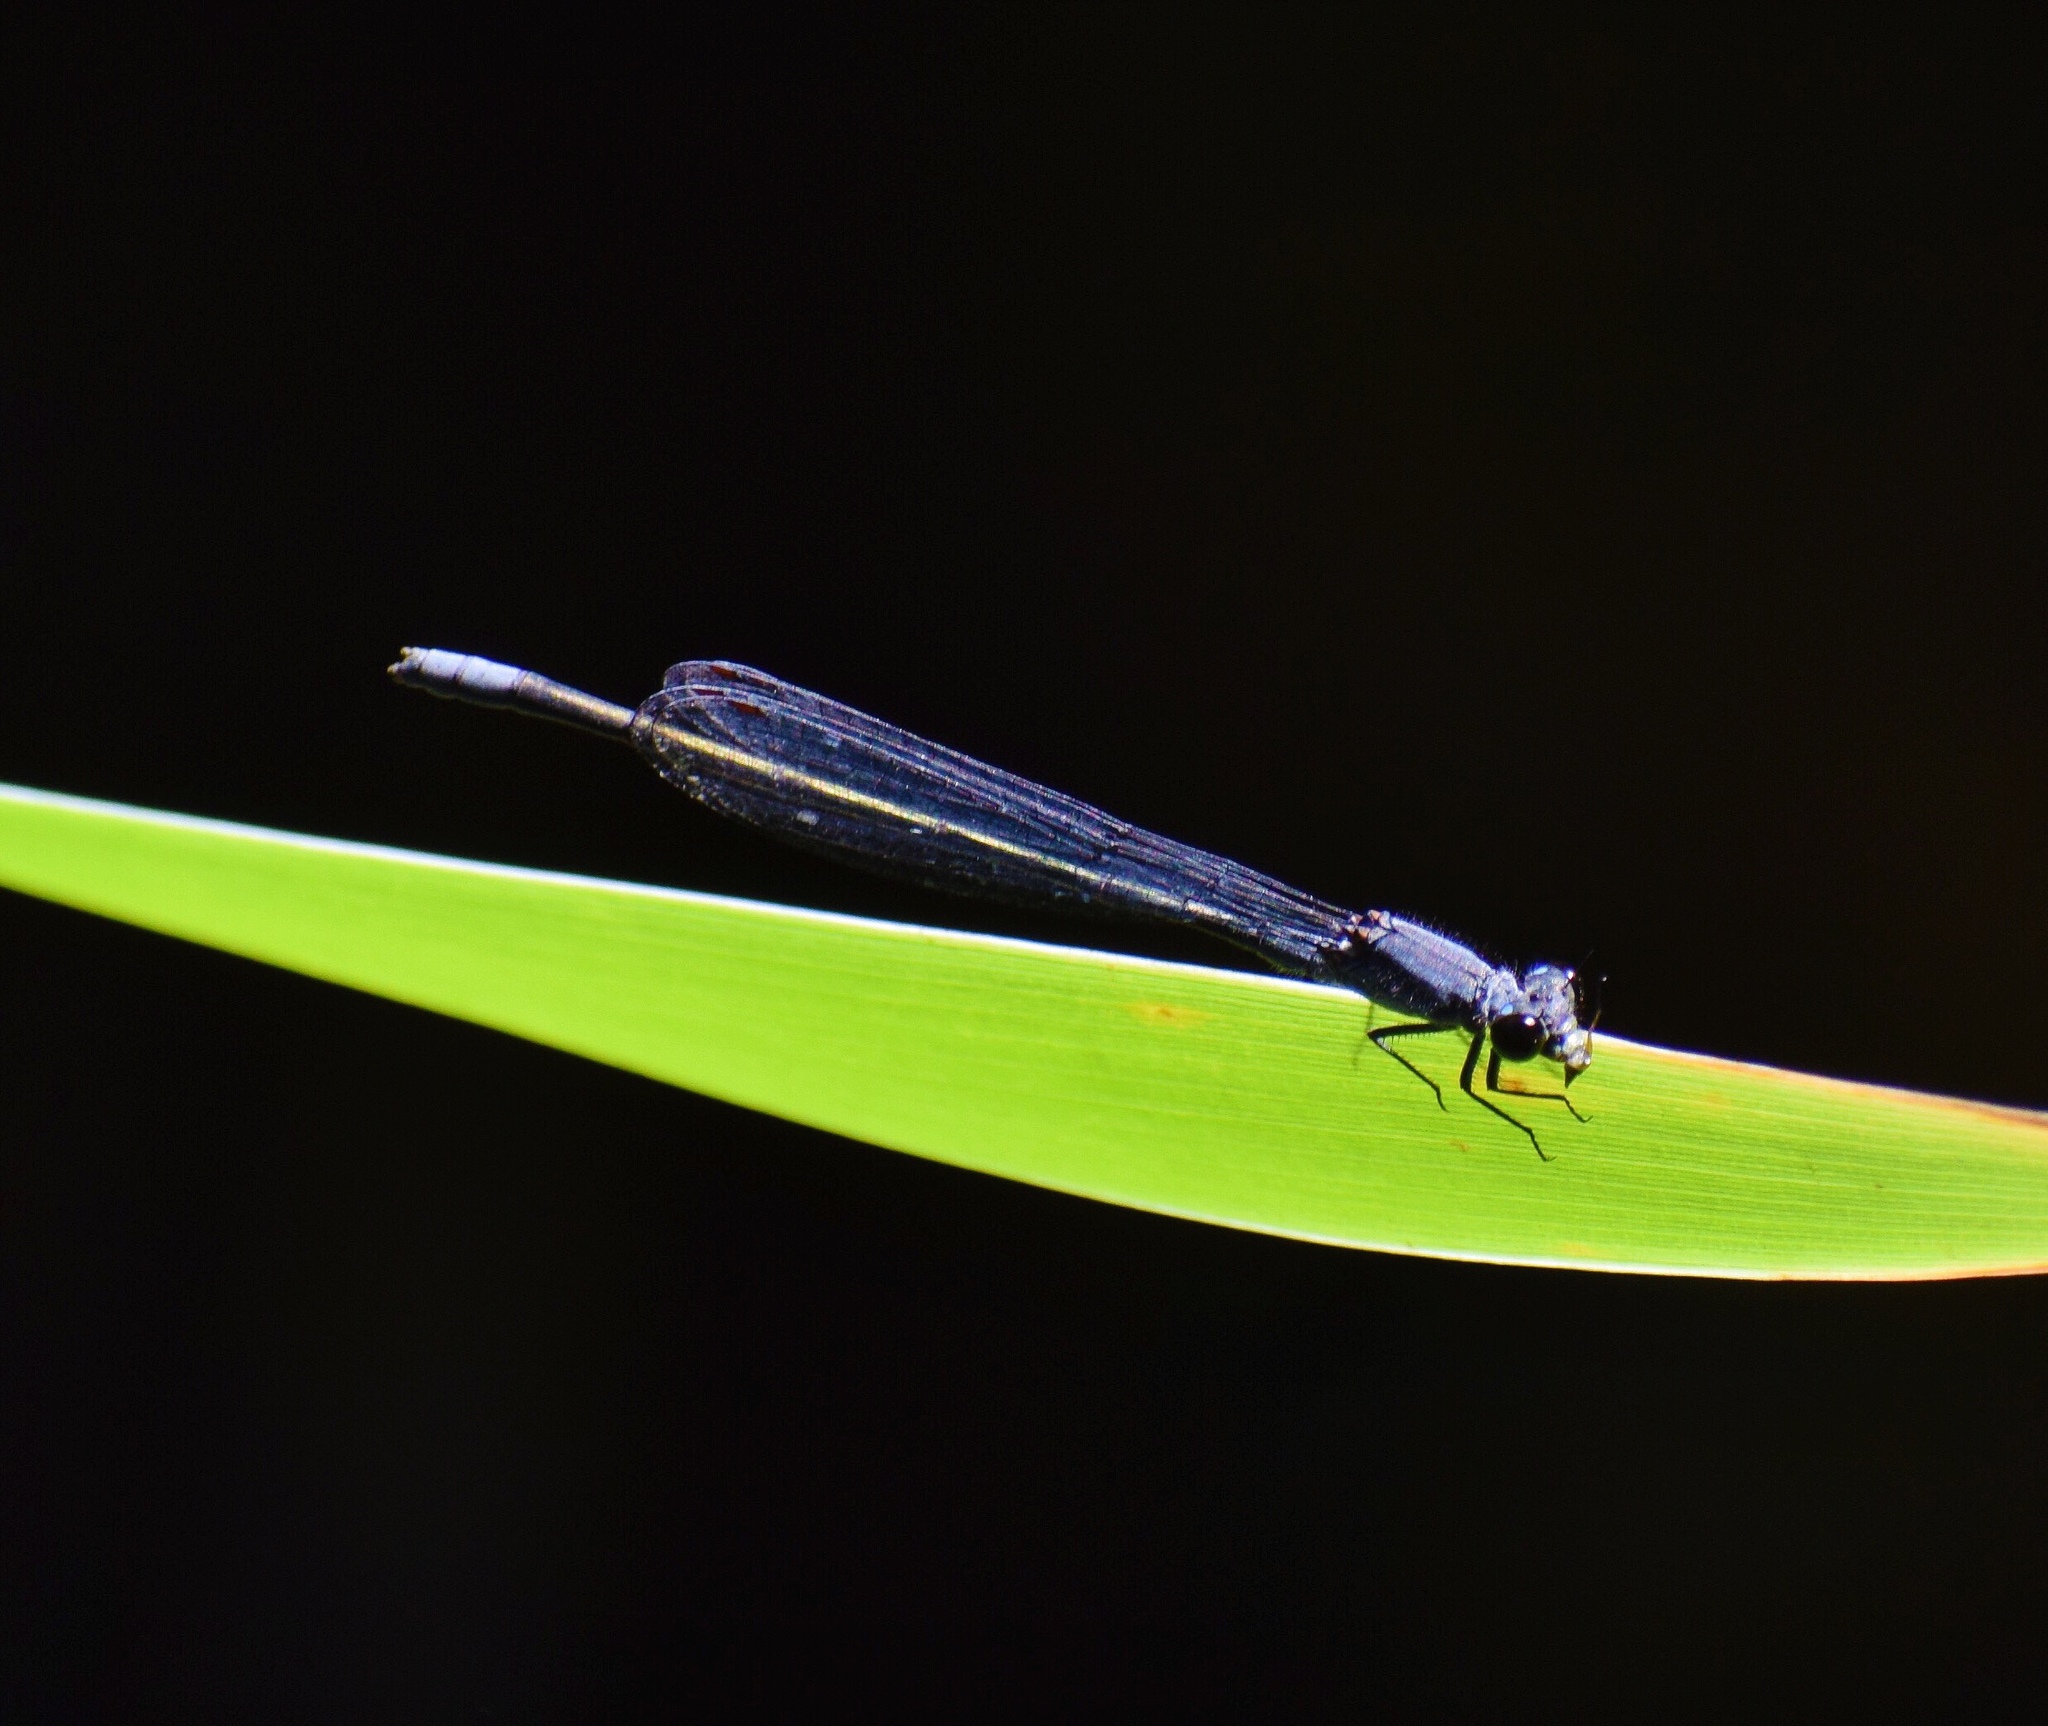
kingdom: Animalia
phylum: Arthropoda
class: Insecta
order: Odonata
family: Coenagrionidae
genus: Pseudagrion
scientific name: Pseudagrion salisburyense
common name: Slate sprite
